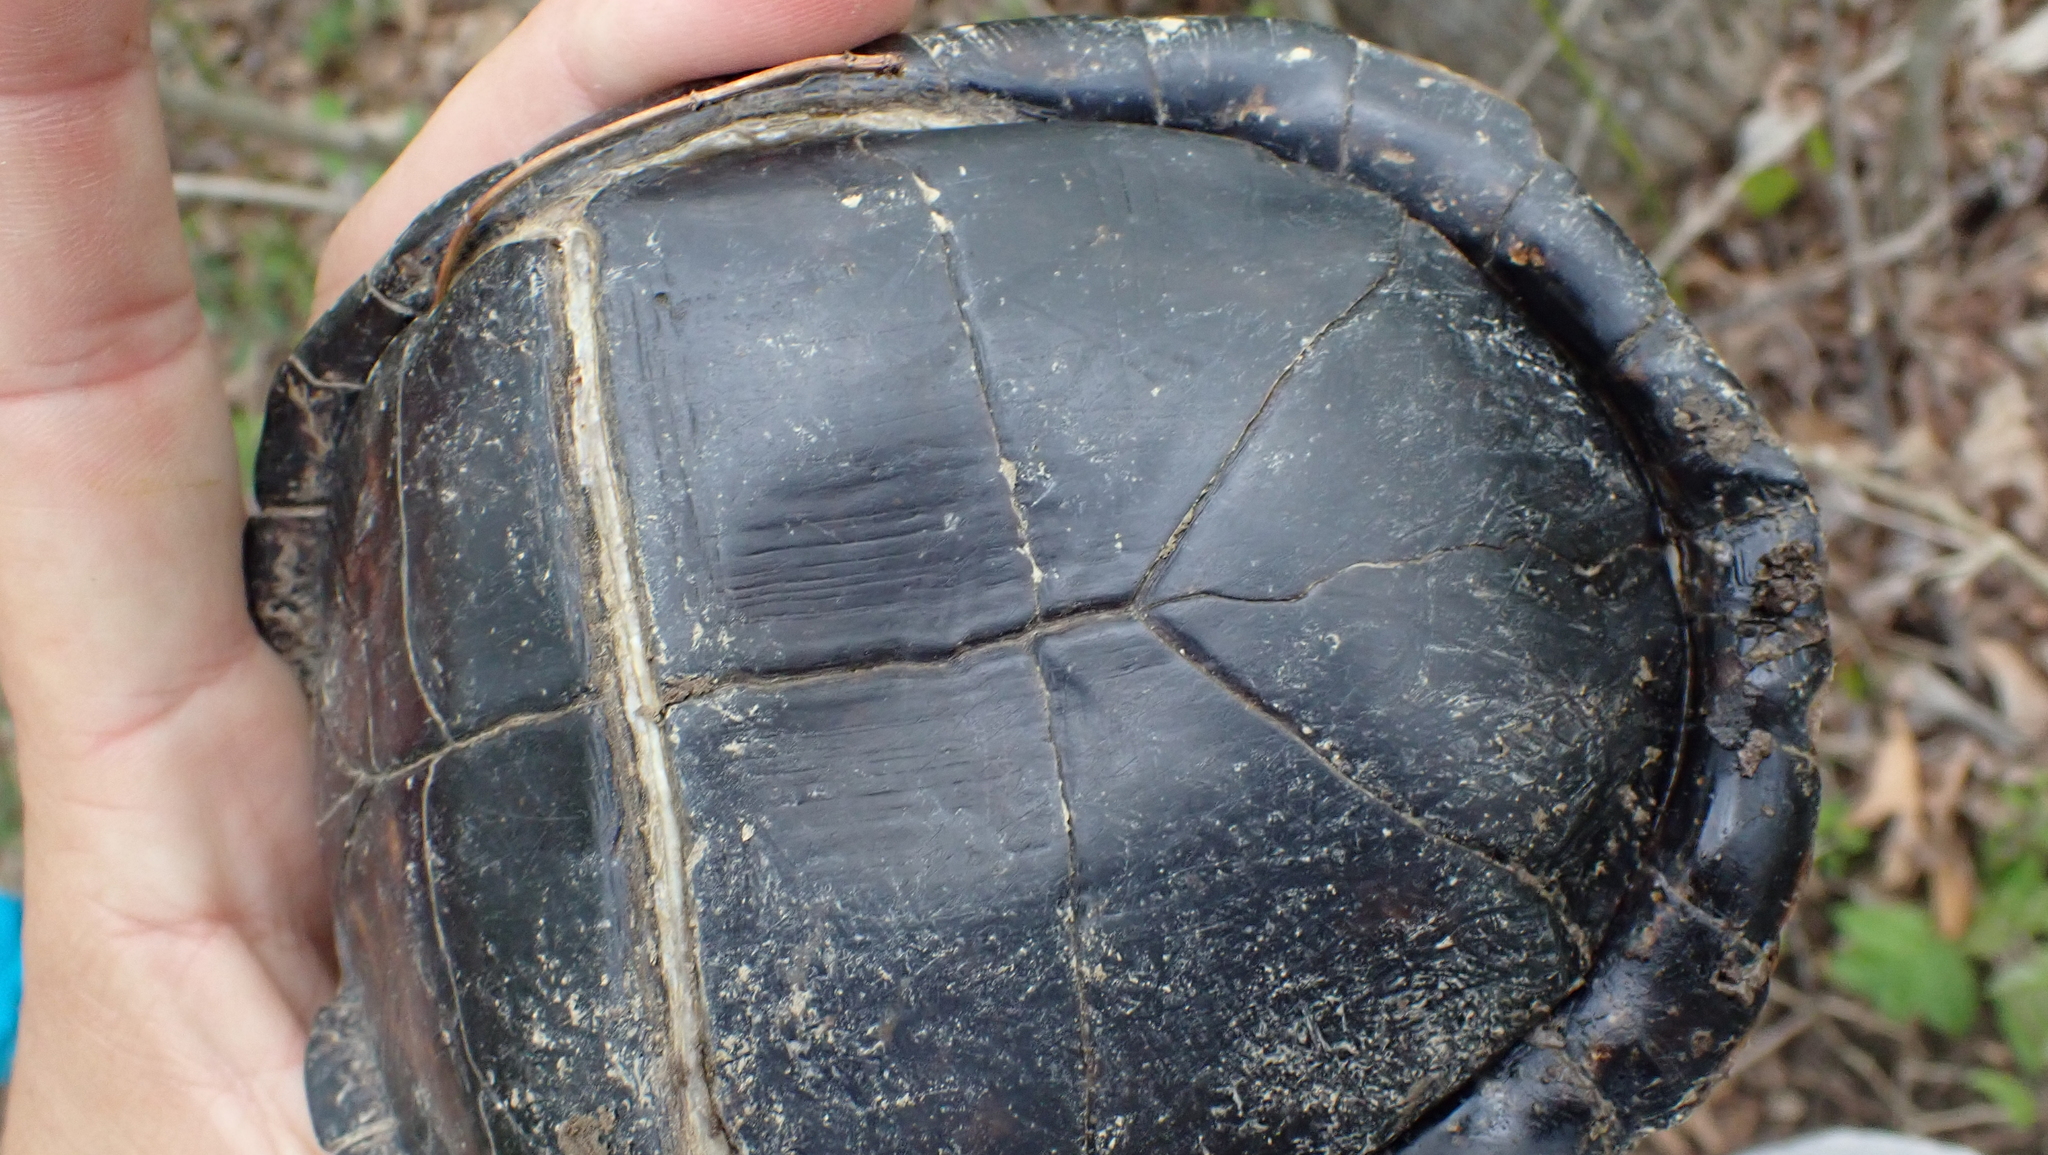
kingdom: Animalia
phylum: Chordata
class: Testudines
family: Emydidae
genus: Terrapene
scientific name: Terrapene carolina
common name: Common box turtle
